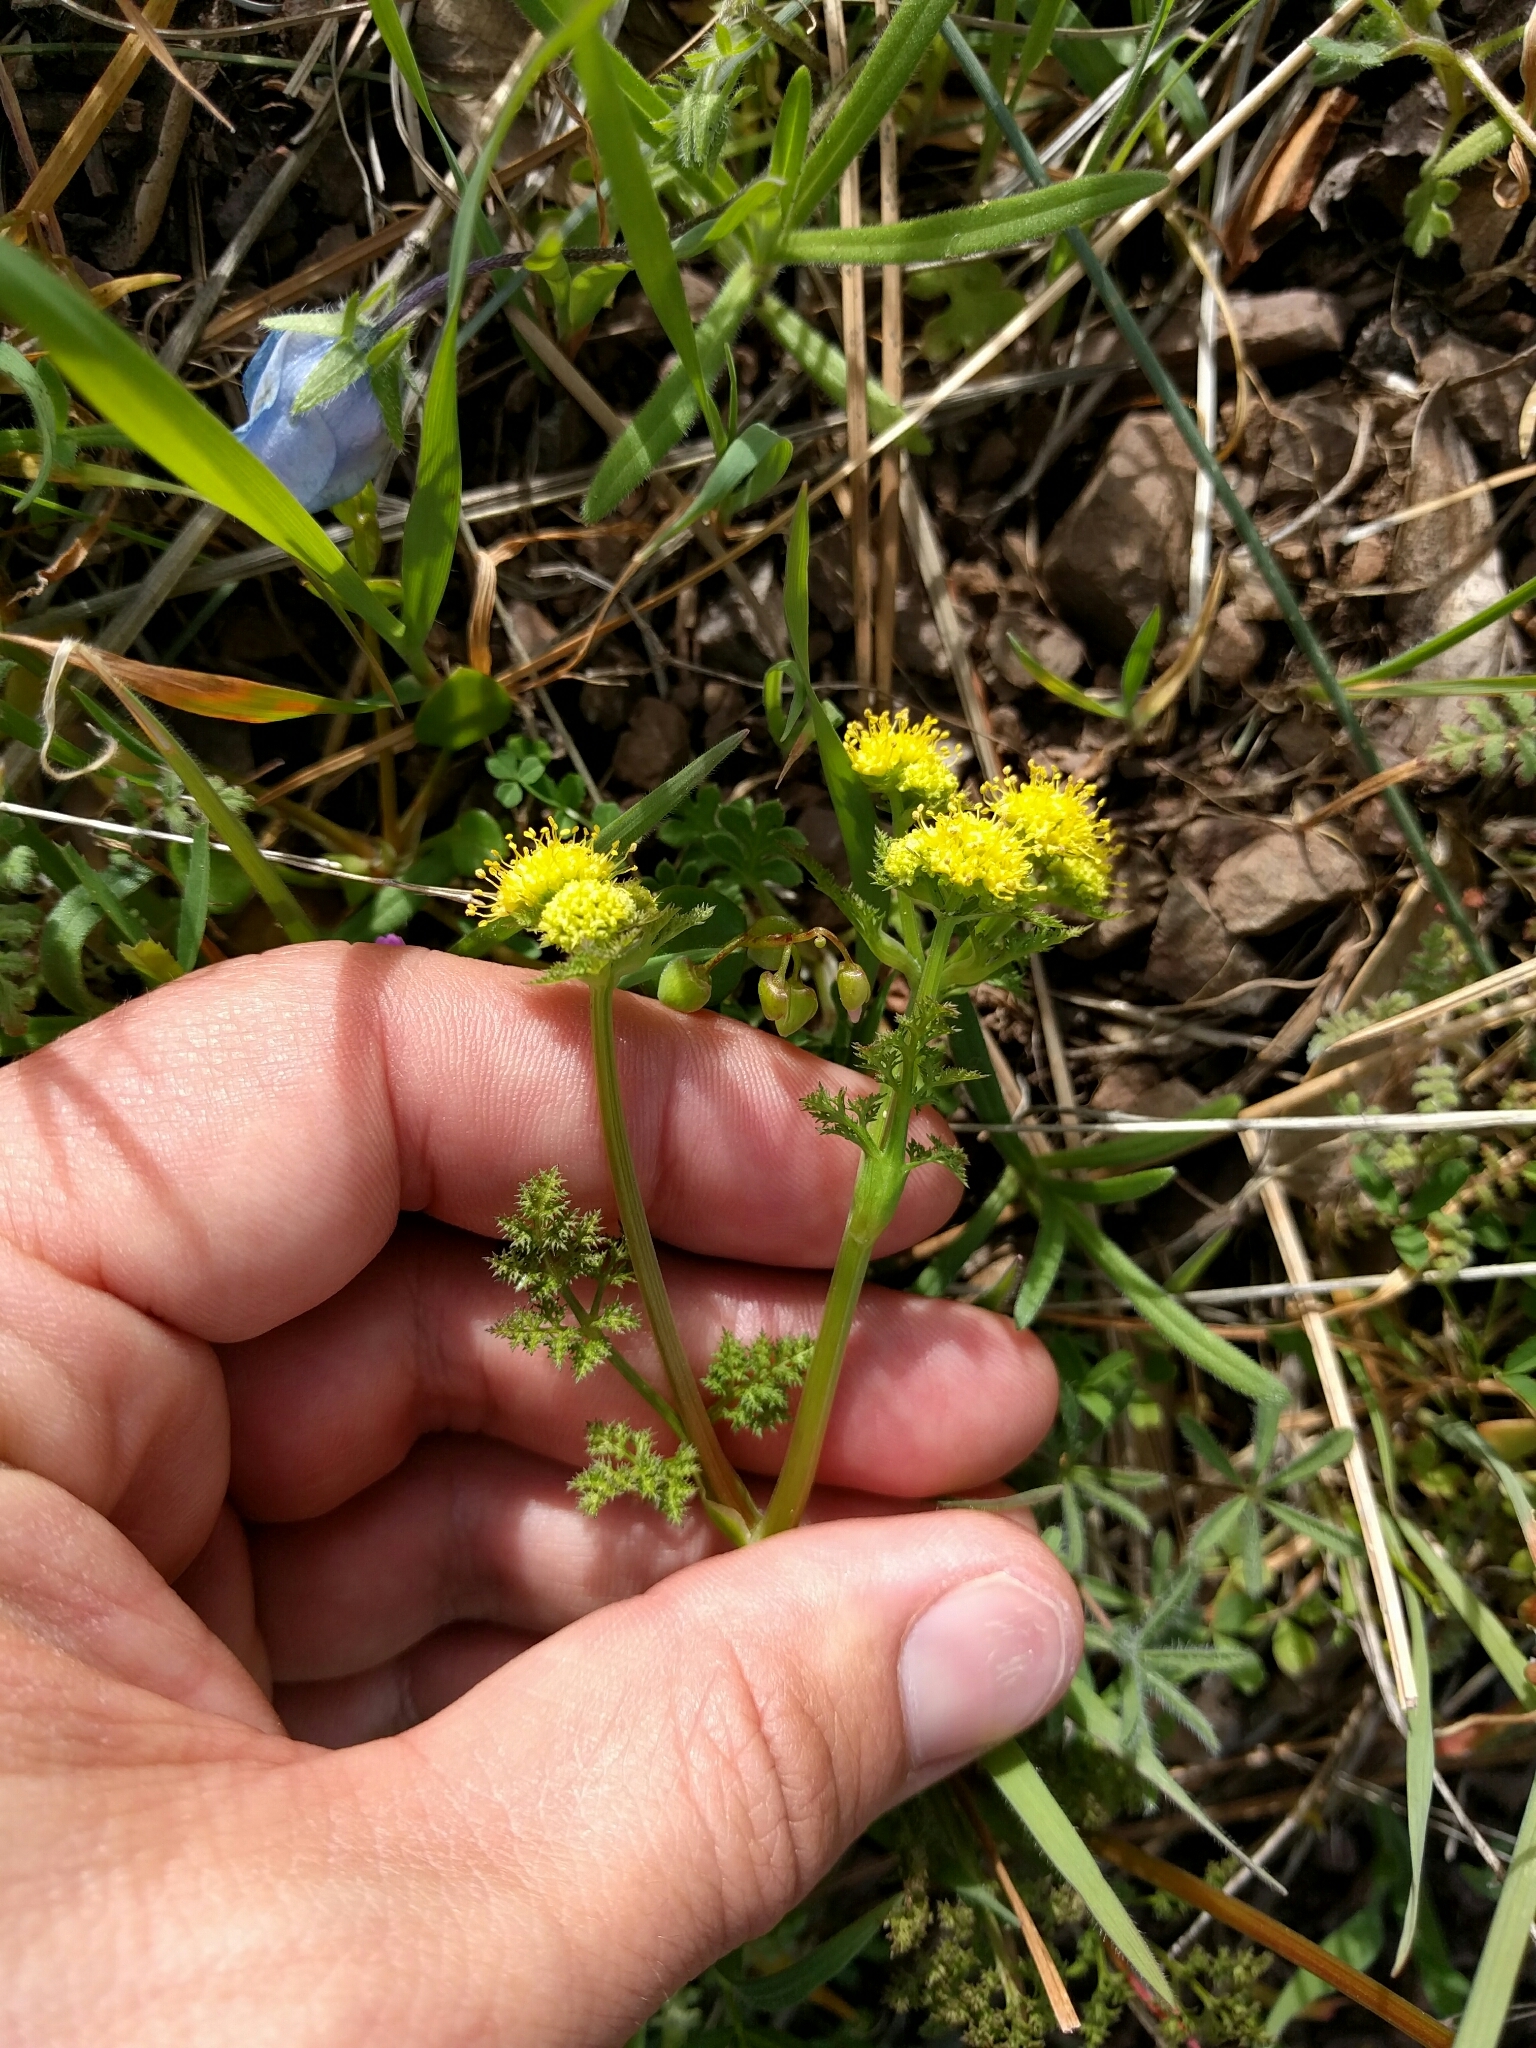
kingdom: Plantae
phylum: Tracheophyta
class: Magnoliopsida
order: Apiales
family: Apiaceae
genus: Sanicula
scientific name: Sanicula tuberosa
